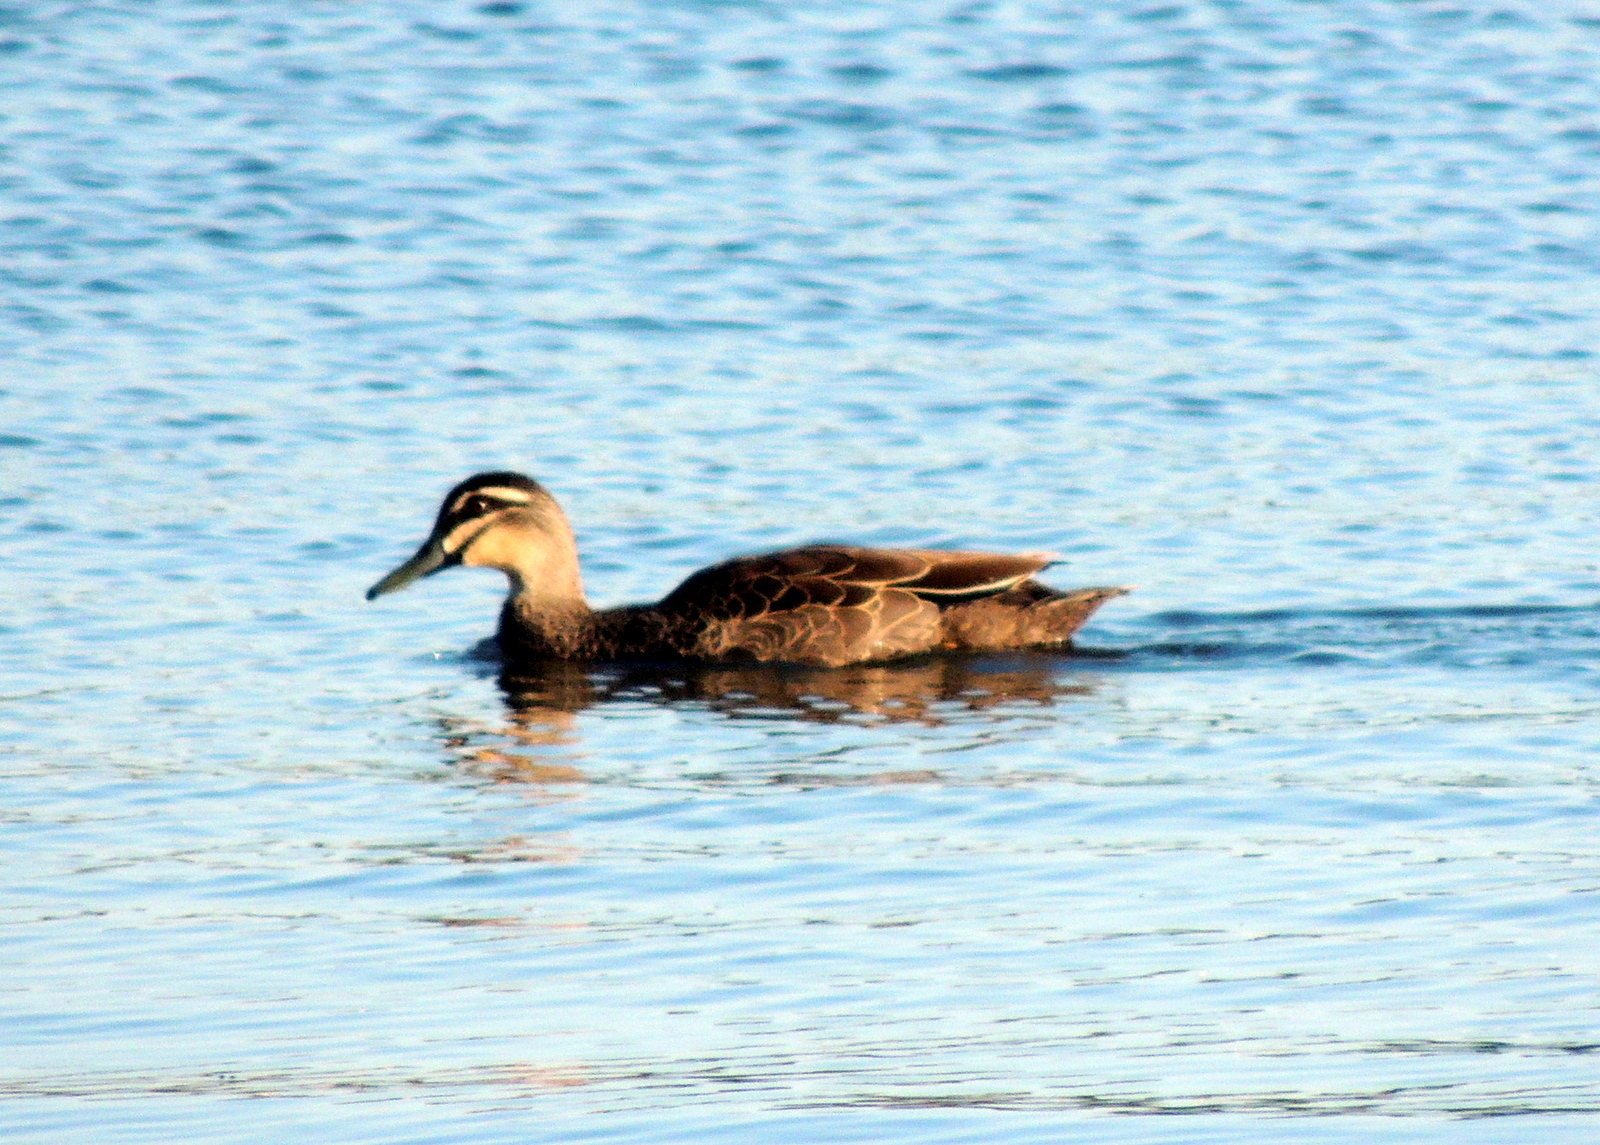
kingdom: Animalia
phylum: Chordata
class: Aves
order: Anseriformes
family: Anatidae
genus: Anas
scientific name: Anas superciliosa
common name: Pacific black duck
